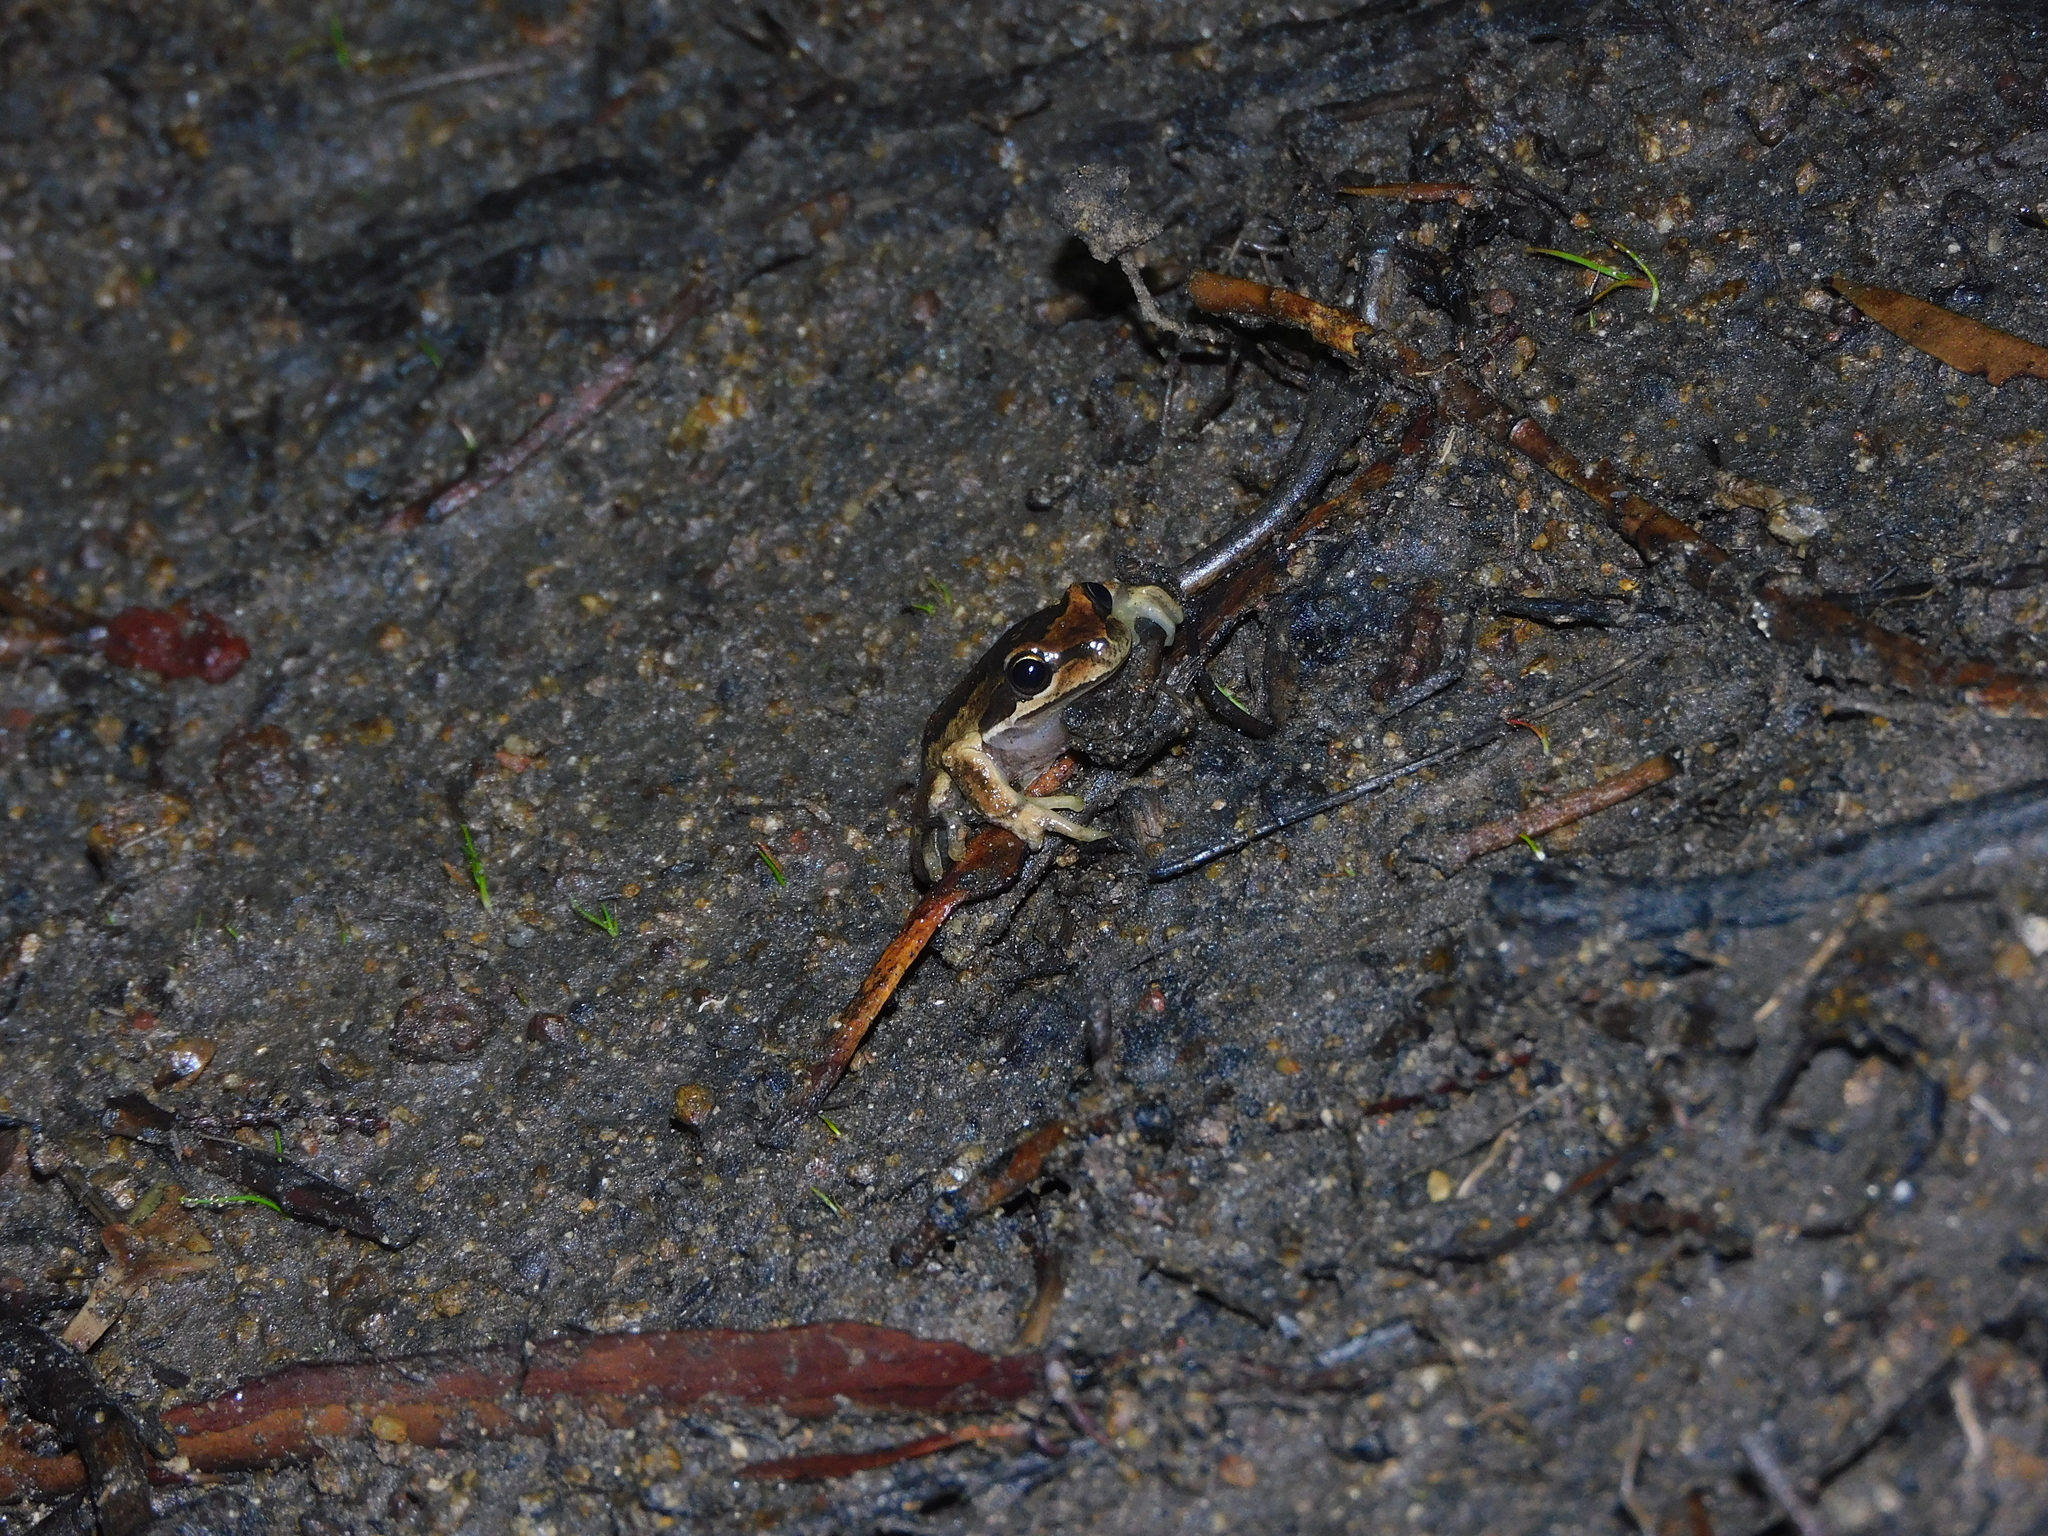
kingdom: Animalia
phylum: Chordata
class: Amphibia
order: Anura
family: Pelodryadidae
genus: Litoria
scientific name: Litoria ewingii
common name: Southern brown tree frog
